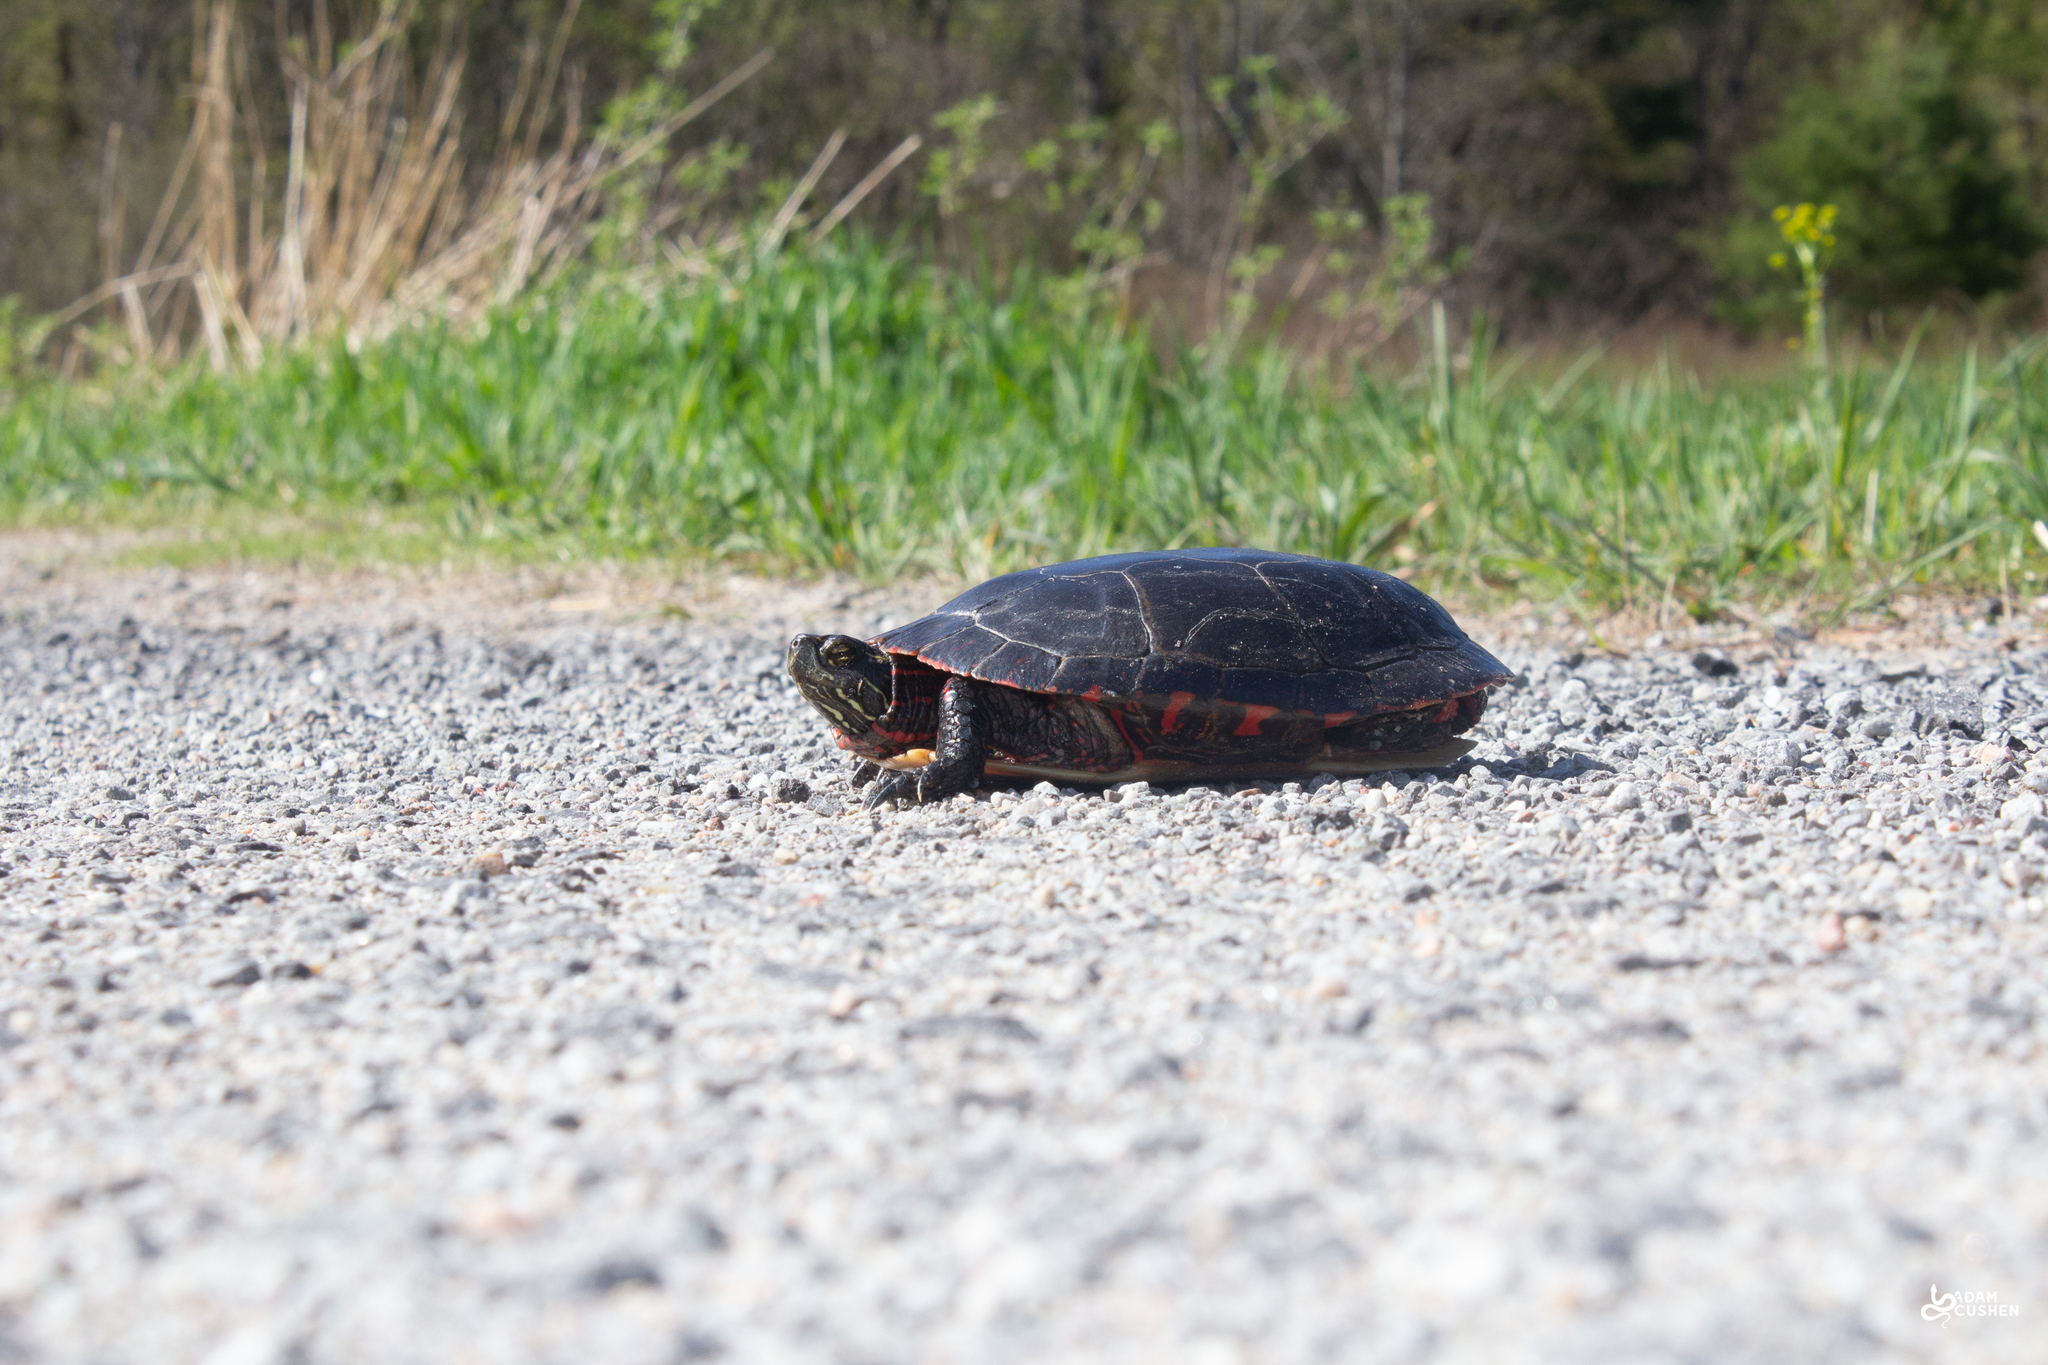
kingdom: Animalia
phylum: Chordata
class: Testudines
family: Emydidae
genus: Chrysemys
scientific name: Chrysemys picta
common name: Painted turtle
